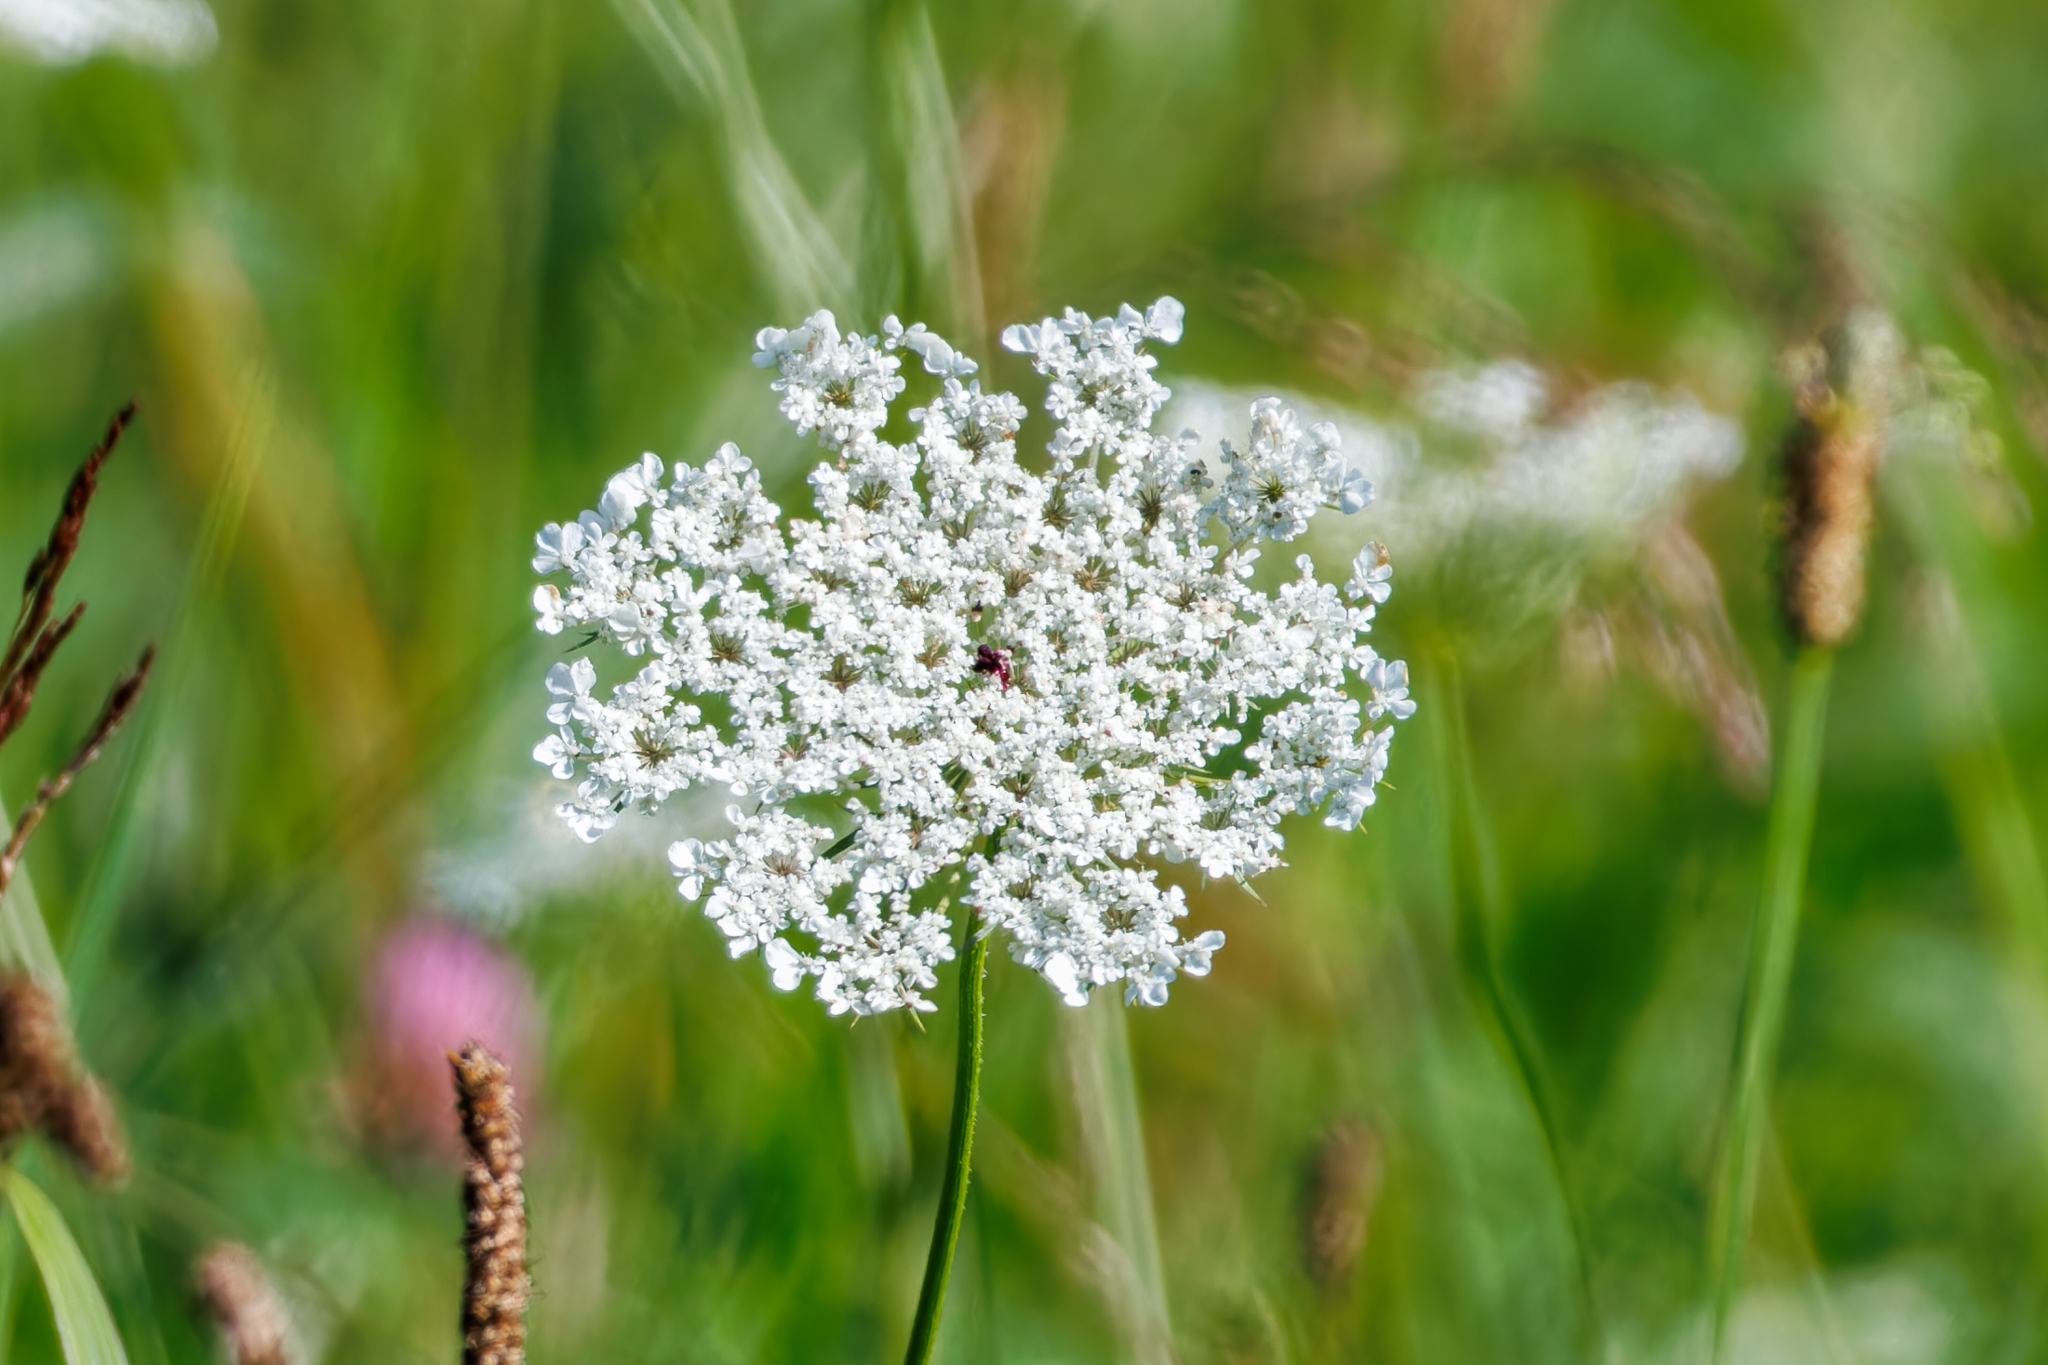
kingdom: Plantae
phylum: Tracheophyta
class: Magnoliopsida
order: Apiales
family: Apiaceae
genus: Daucus
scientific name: Daucus carota
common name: Wild carrot
